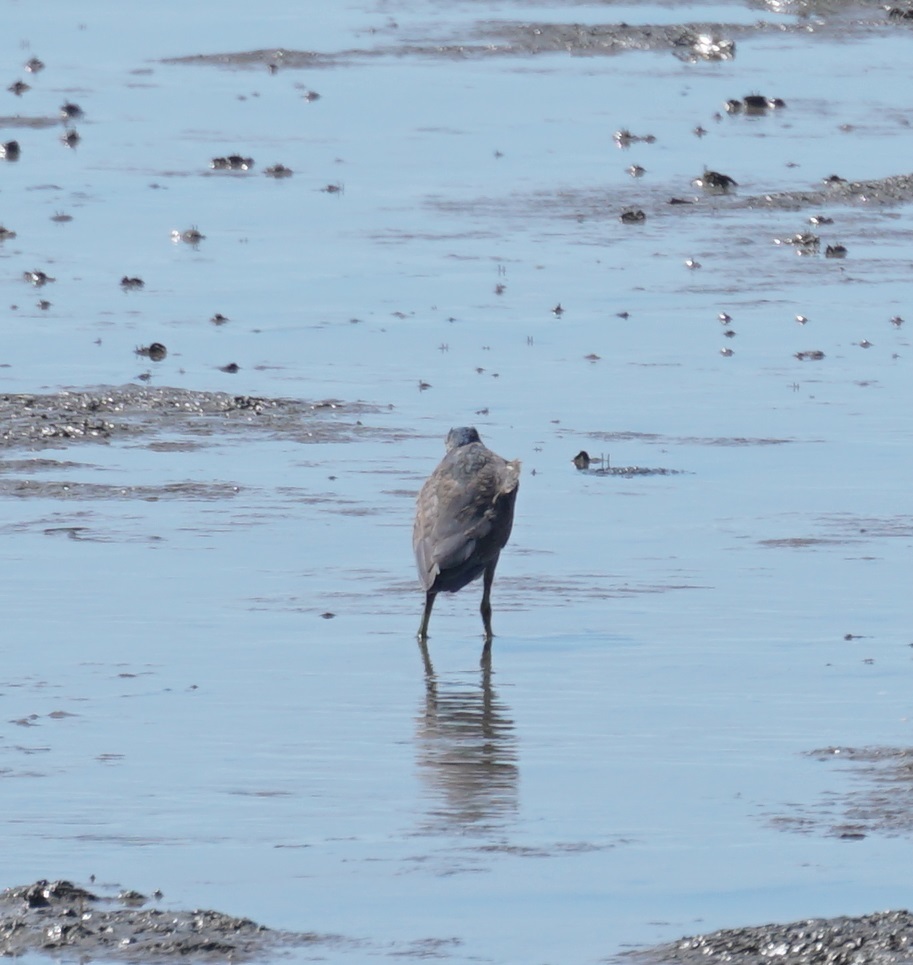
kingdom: Animalia
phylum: Chordata
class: Aves
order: Pelecaniformes
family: Ardeidae
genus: Butorides
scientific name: Butorides striata
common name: Striated heron
